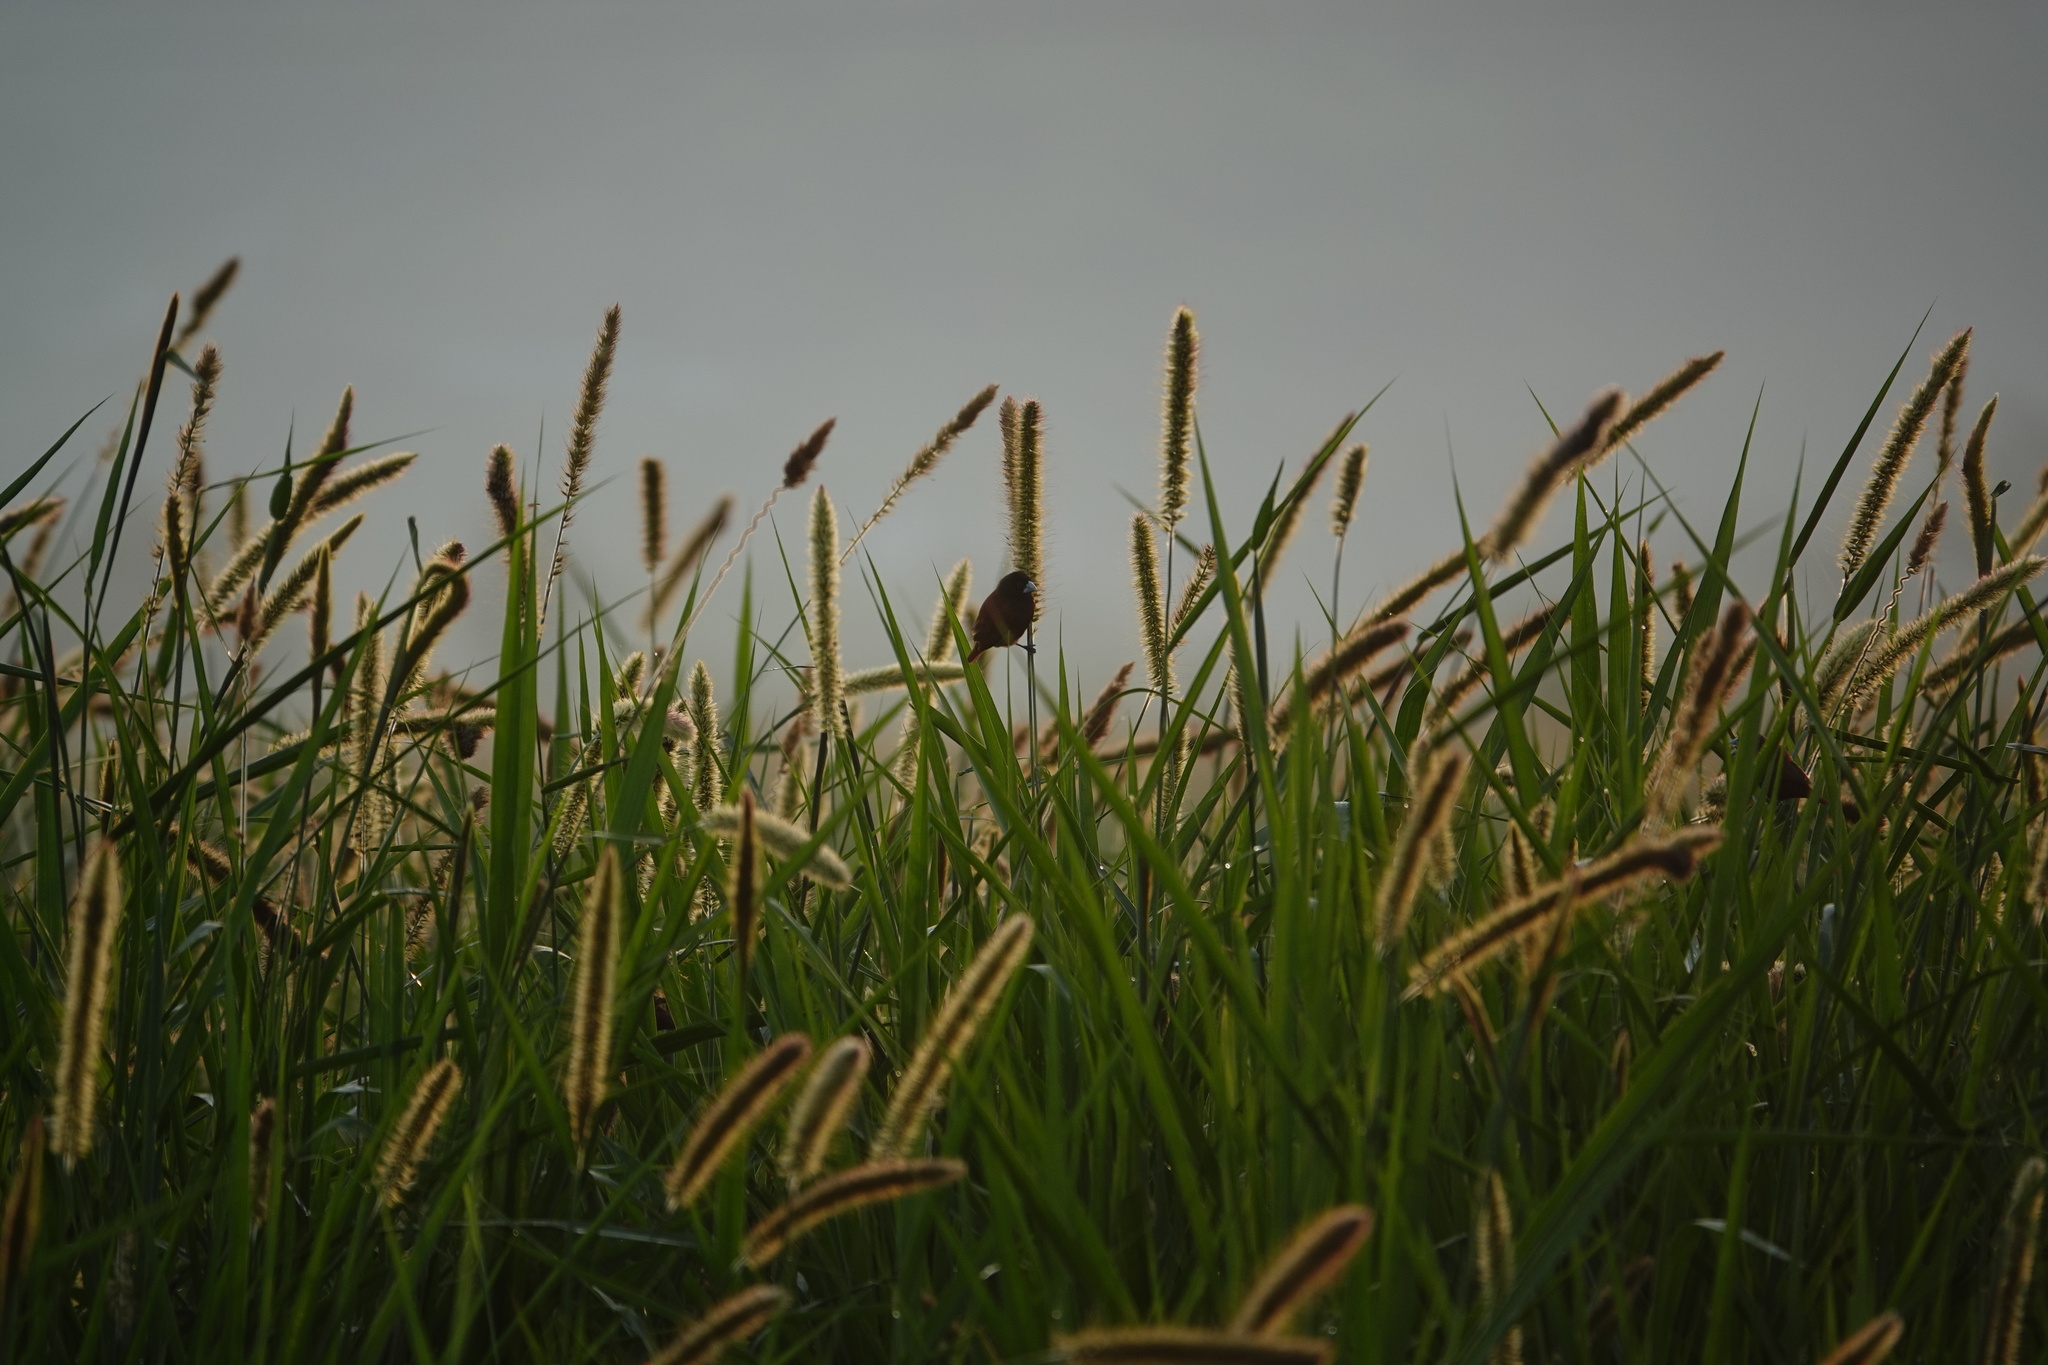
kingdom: Animalia
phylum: Chordata
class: Aves
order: Passeriformes
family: Estrildidae
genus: Lonchura
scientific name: Lonchura atricapilla
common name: Chestnut munia
